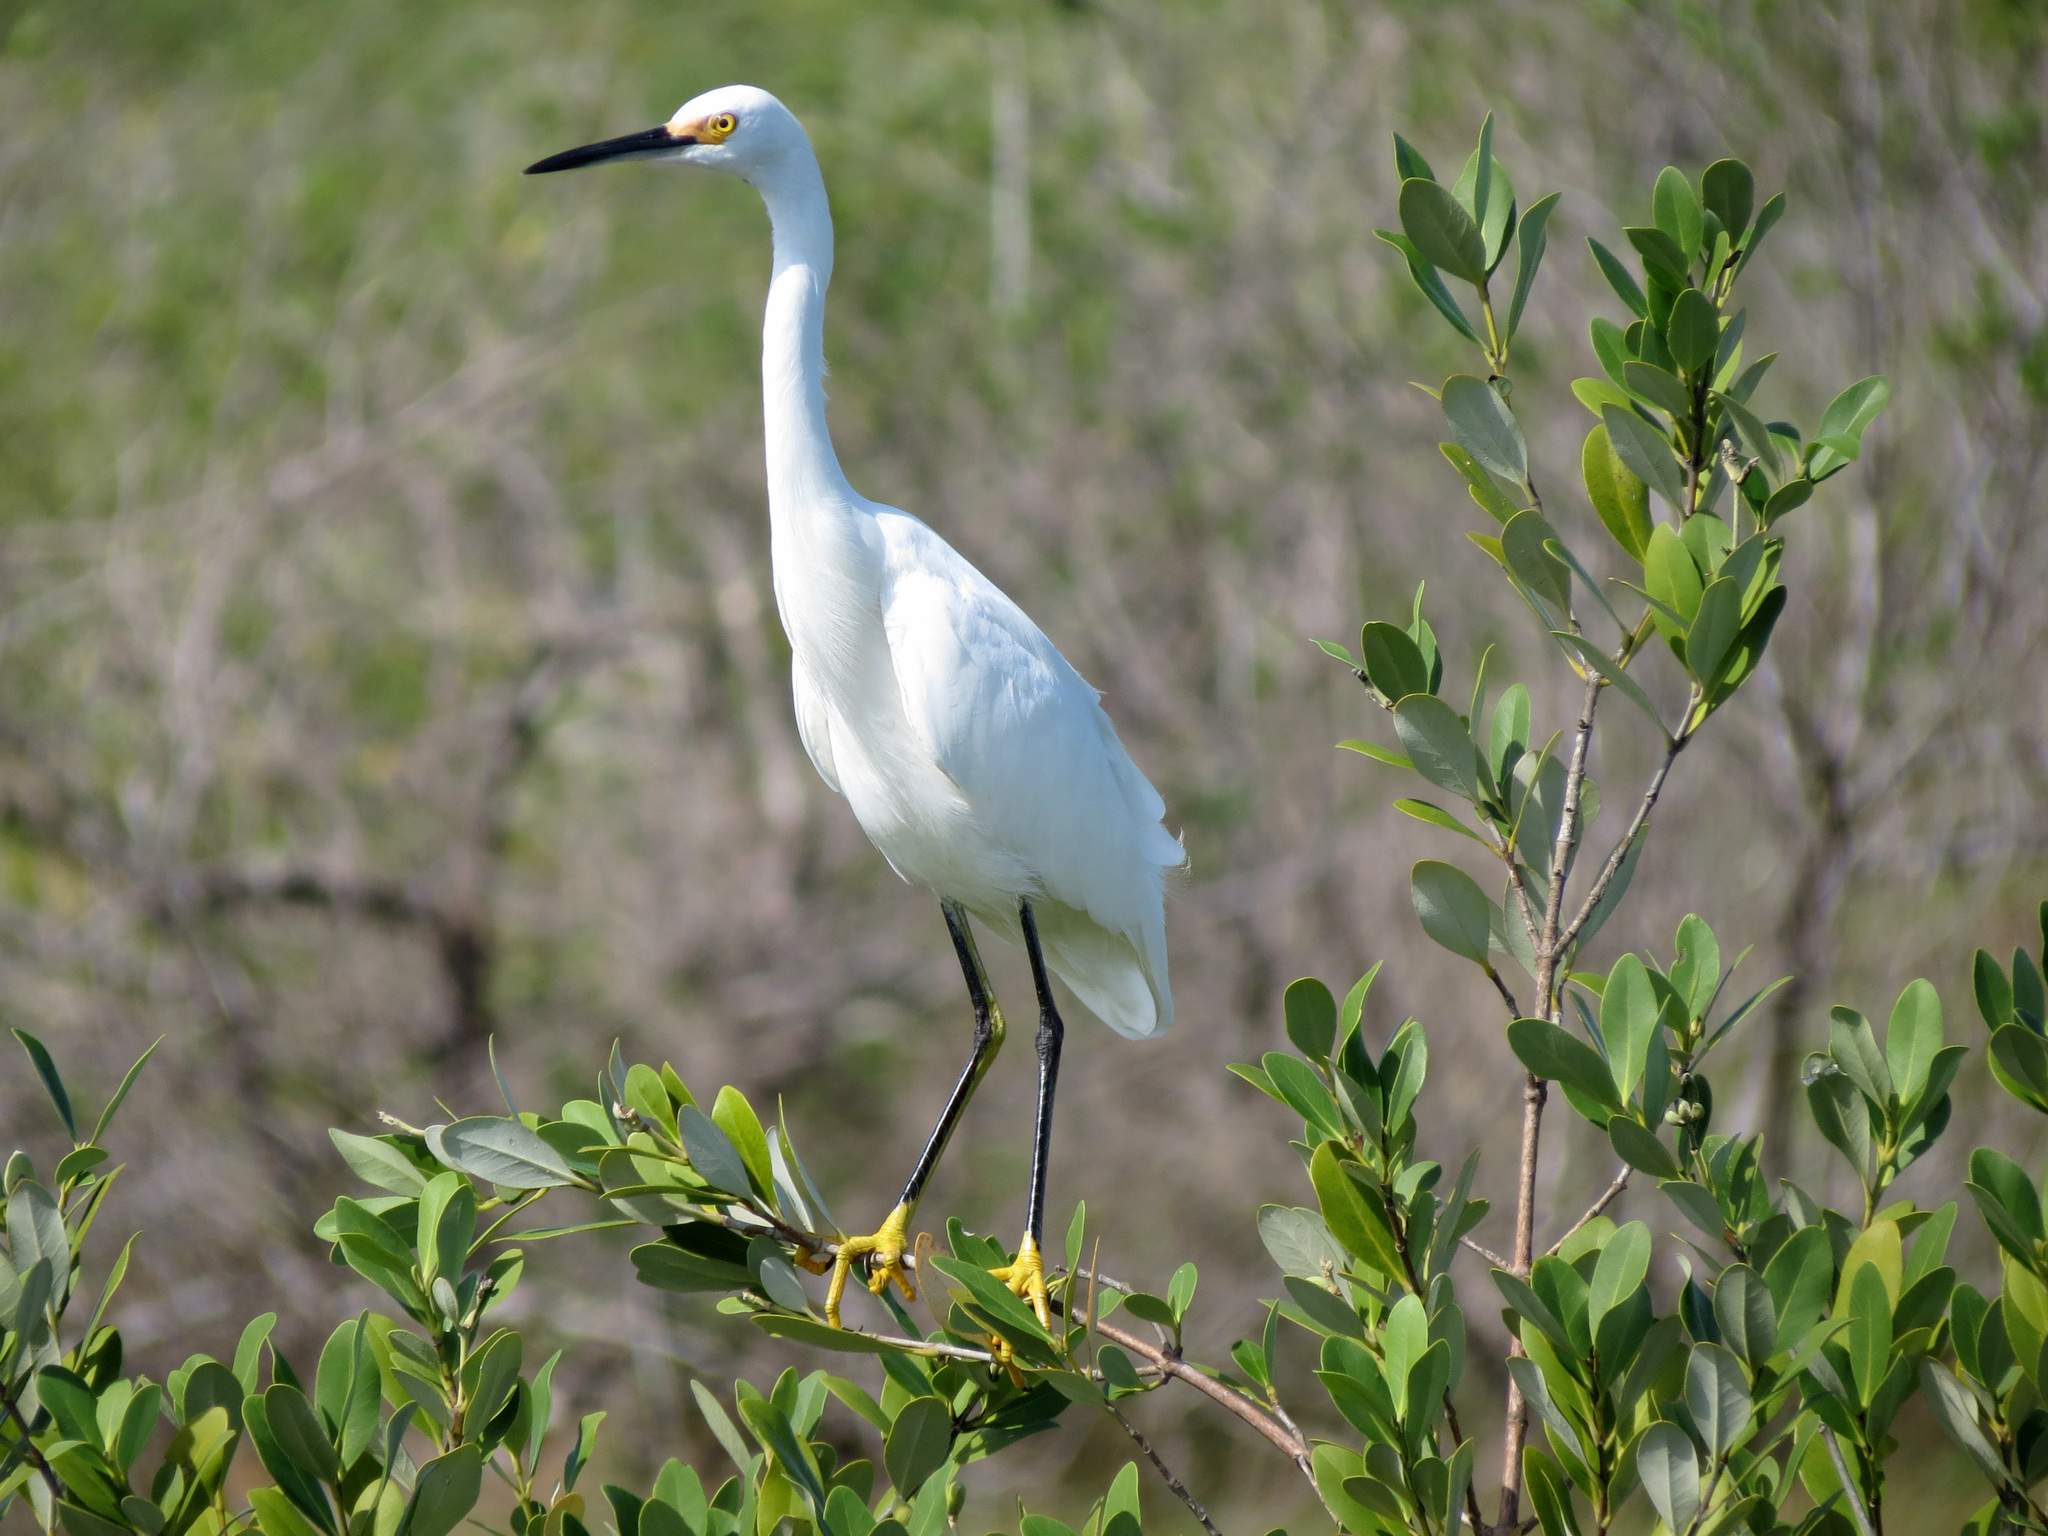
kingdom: Animalia
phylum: Chordata
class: Aves
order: Pelecaniformes
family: Ardeidae
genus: Egretta
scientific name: Egretta thula
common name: Snowy egret
